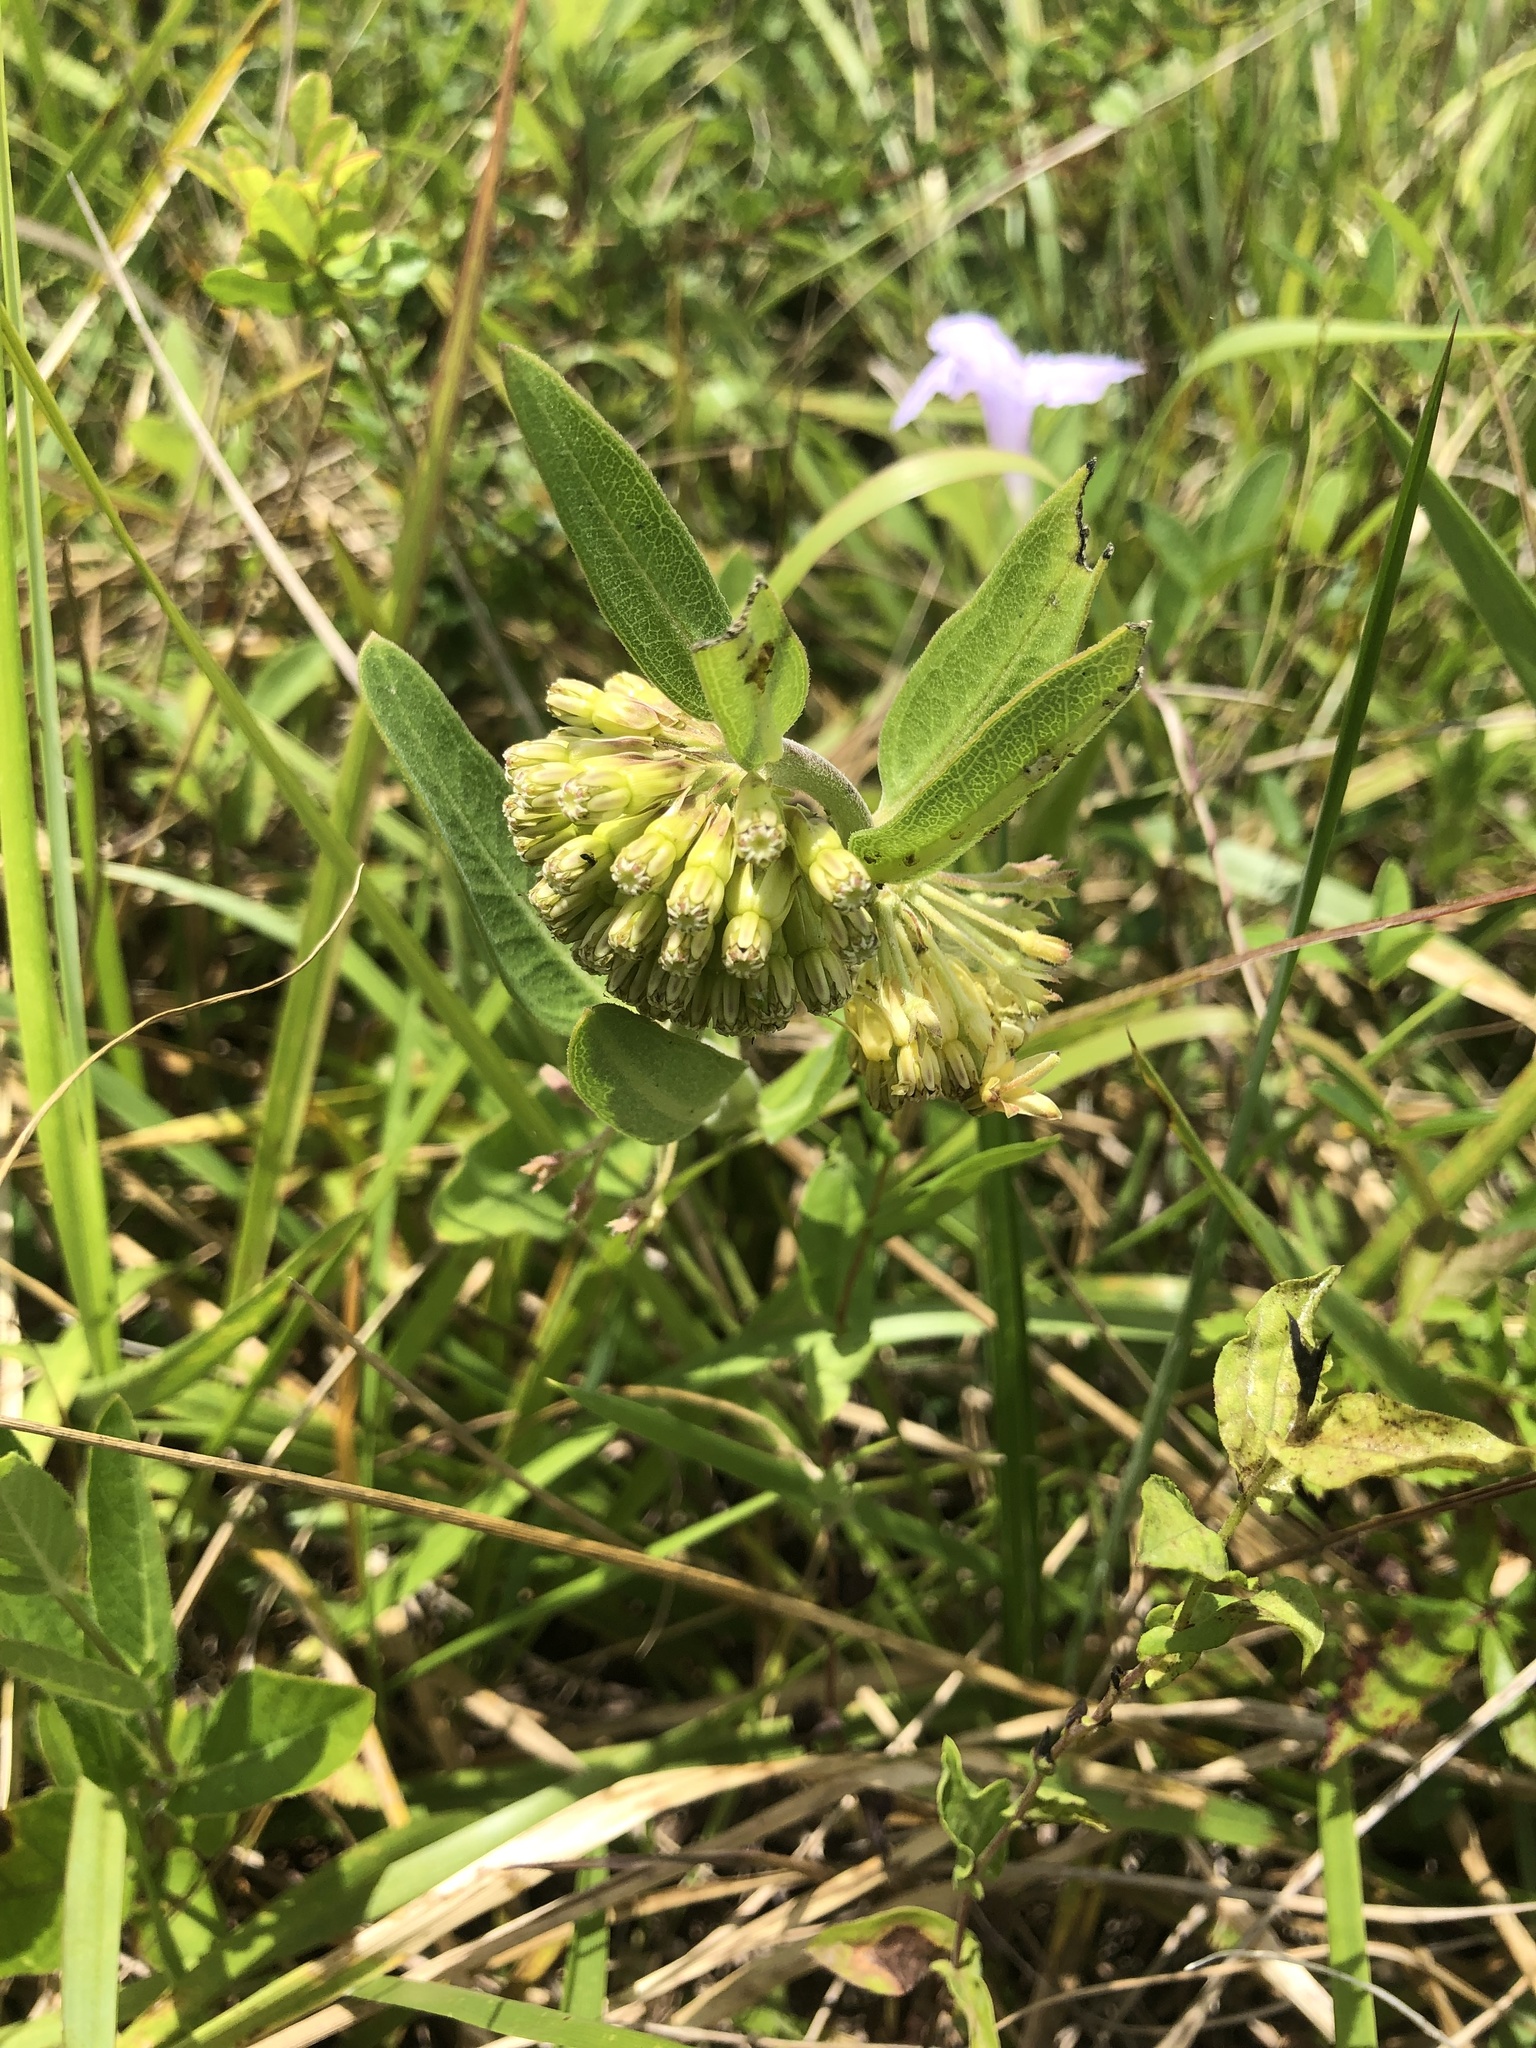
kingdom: Plantae
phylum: Tracheophyta
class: Magnoliopsida
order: Gentianales
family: Apocynaceae
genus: Asclepias
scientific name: Asclepias viridiflora
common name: Green comet milkweed
